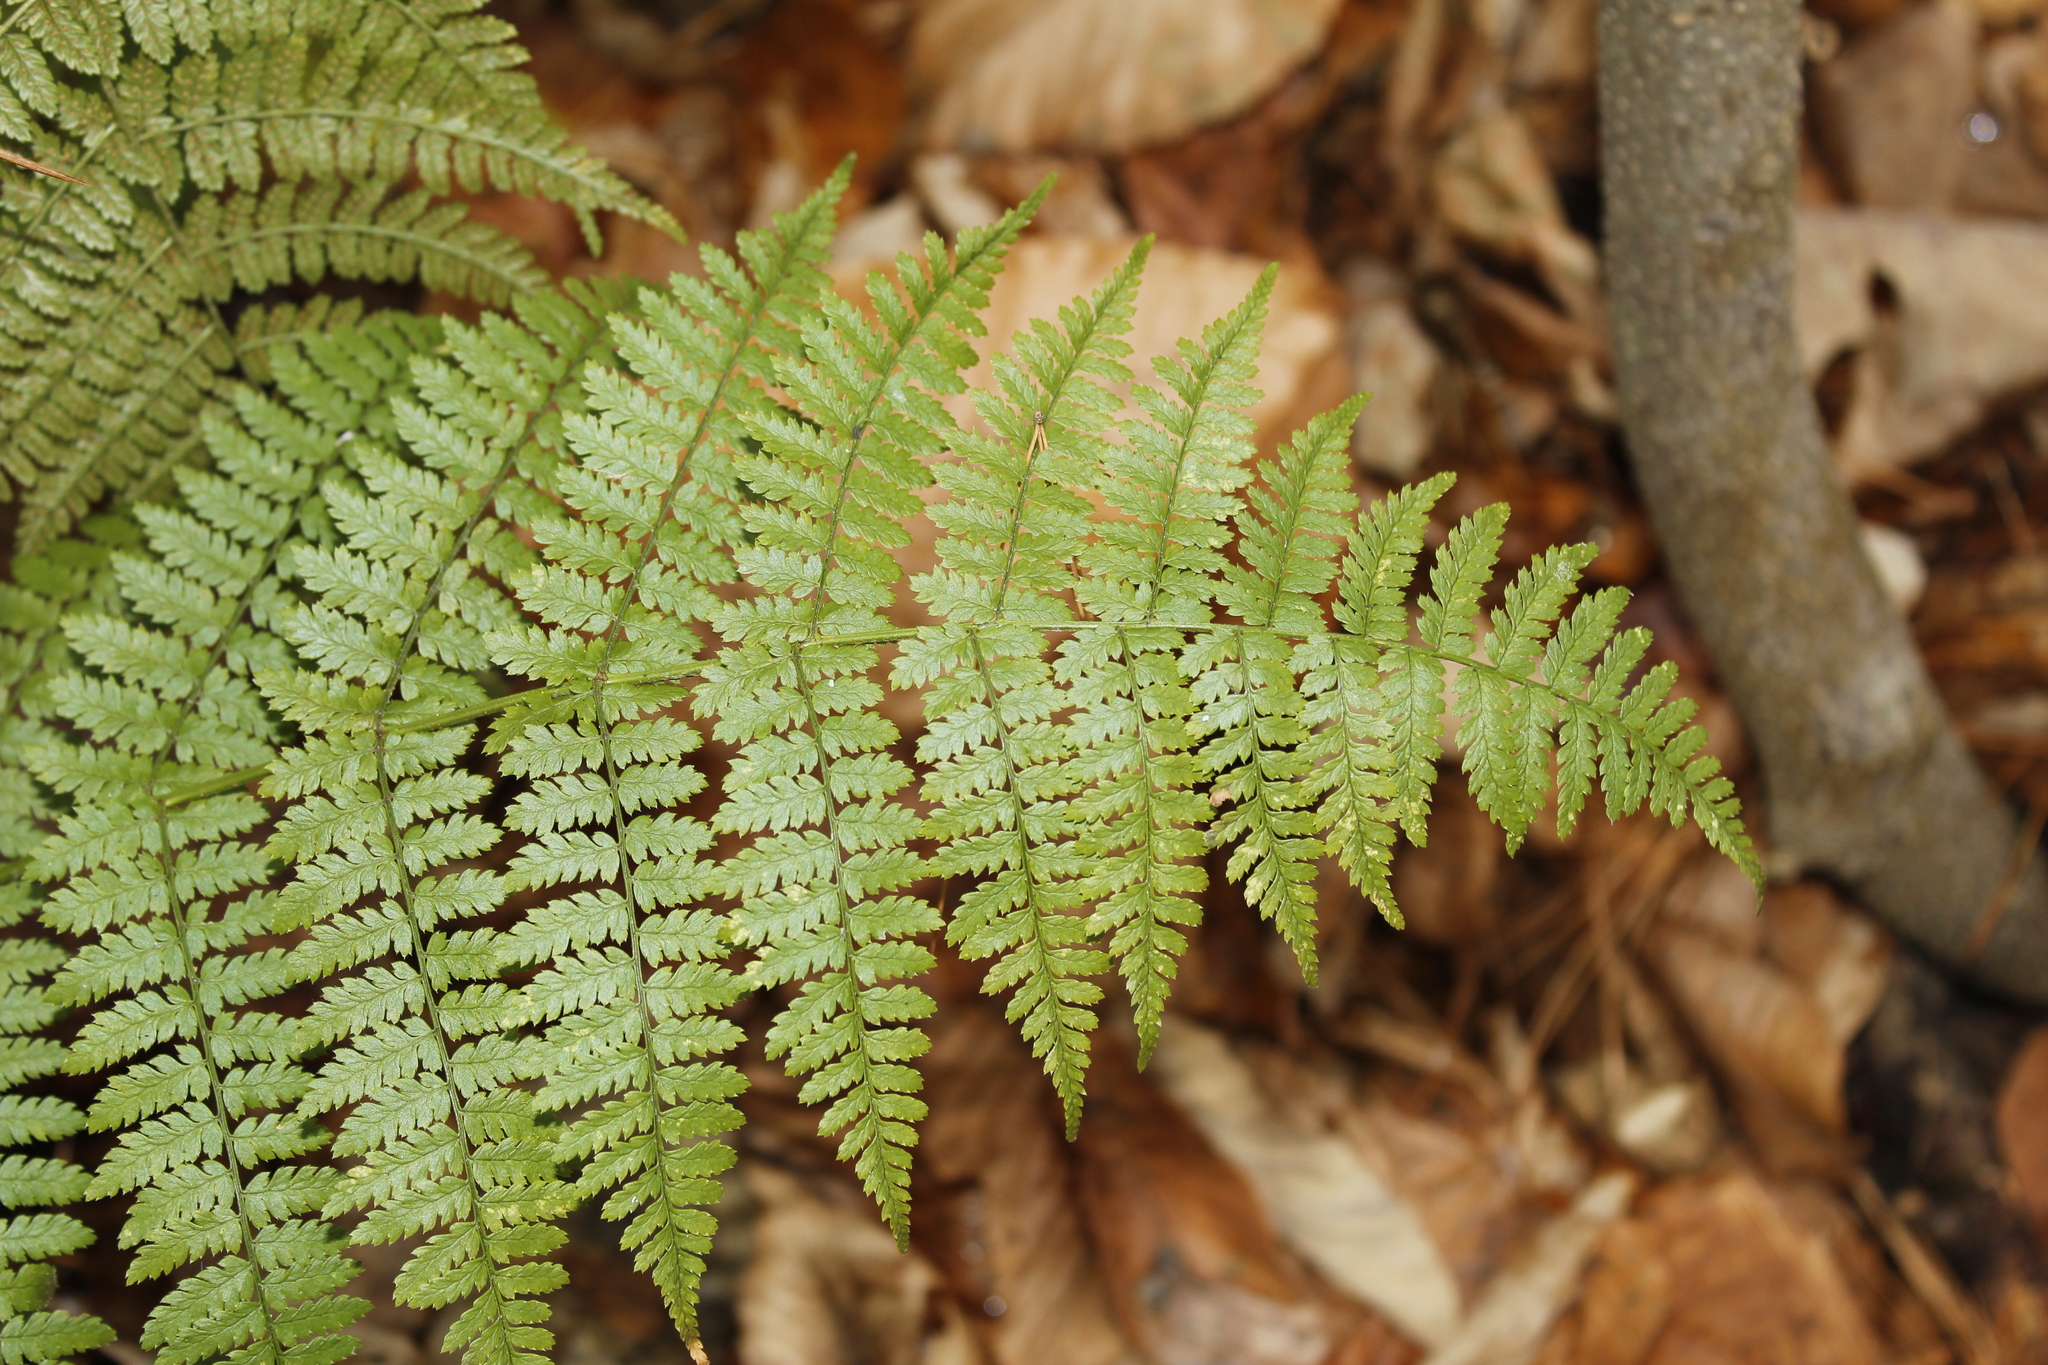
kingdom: Plantae
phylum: Tracheophyta
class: Polypodiopsida
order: Polypodiales
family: Dryopteridaceae
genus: Dryopteris
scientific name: Dryopteris intermedia
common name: Evergreen wood fern
